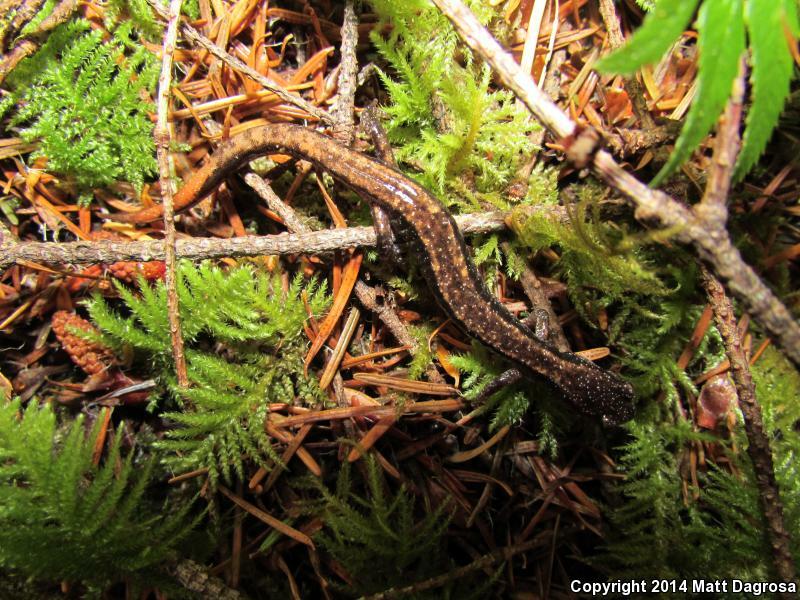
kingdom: Animalia
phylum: Chordata
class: Amphibia
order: Caudata
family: Plethodontidae
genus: Plethodon
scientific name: Plethodon vehiculum
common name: Western red-backed salamander
